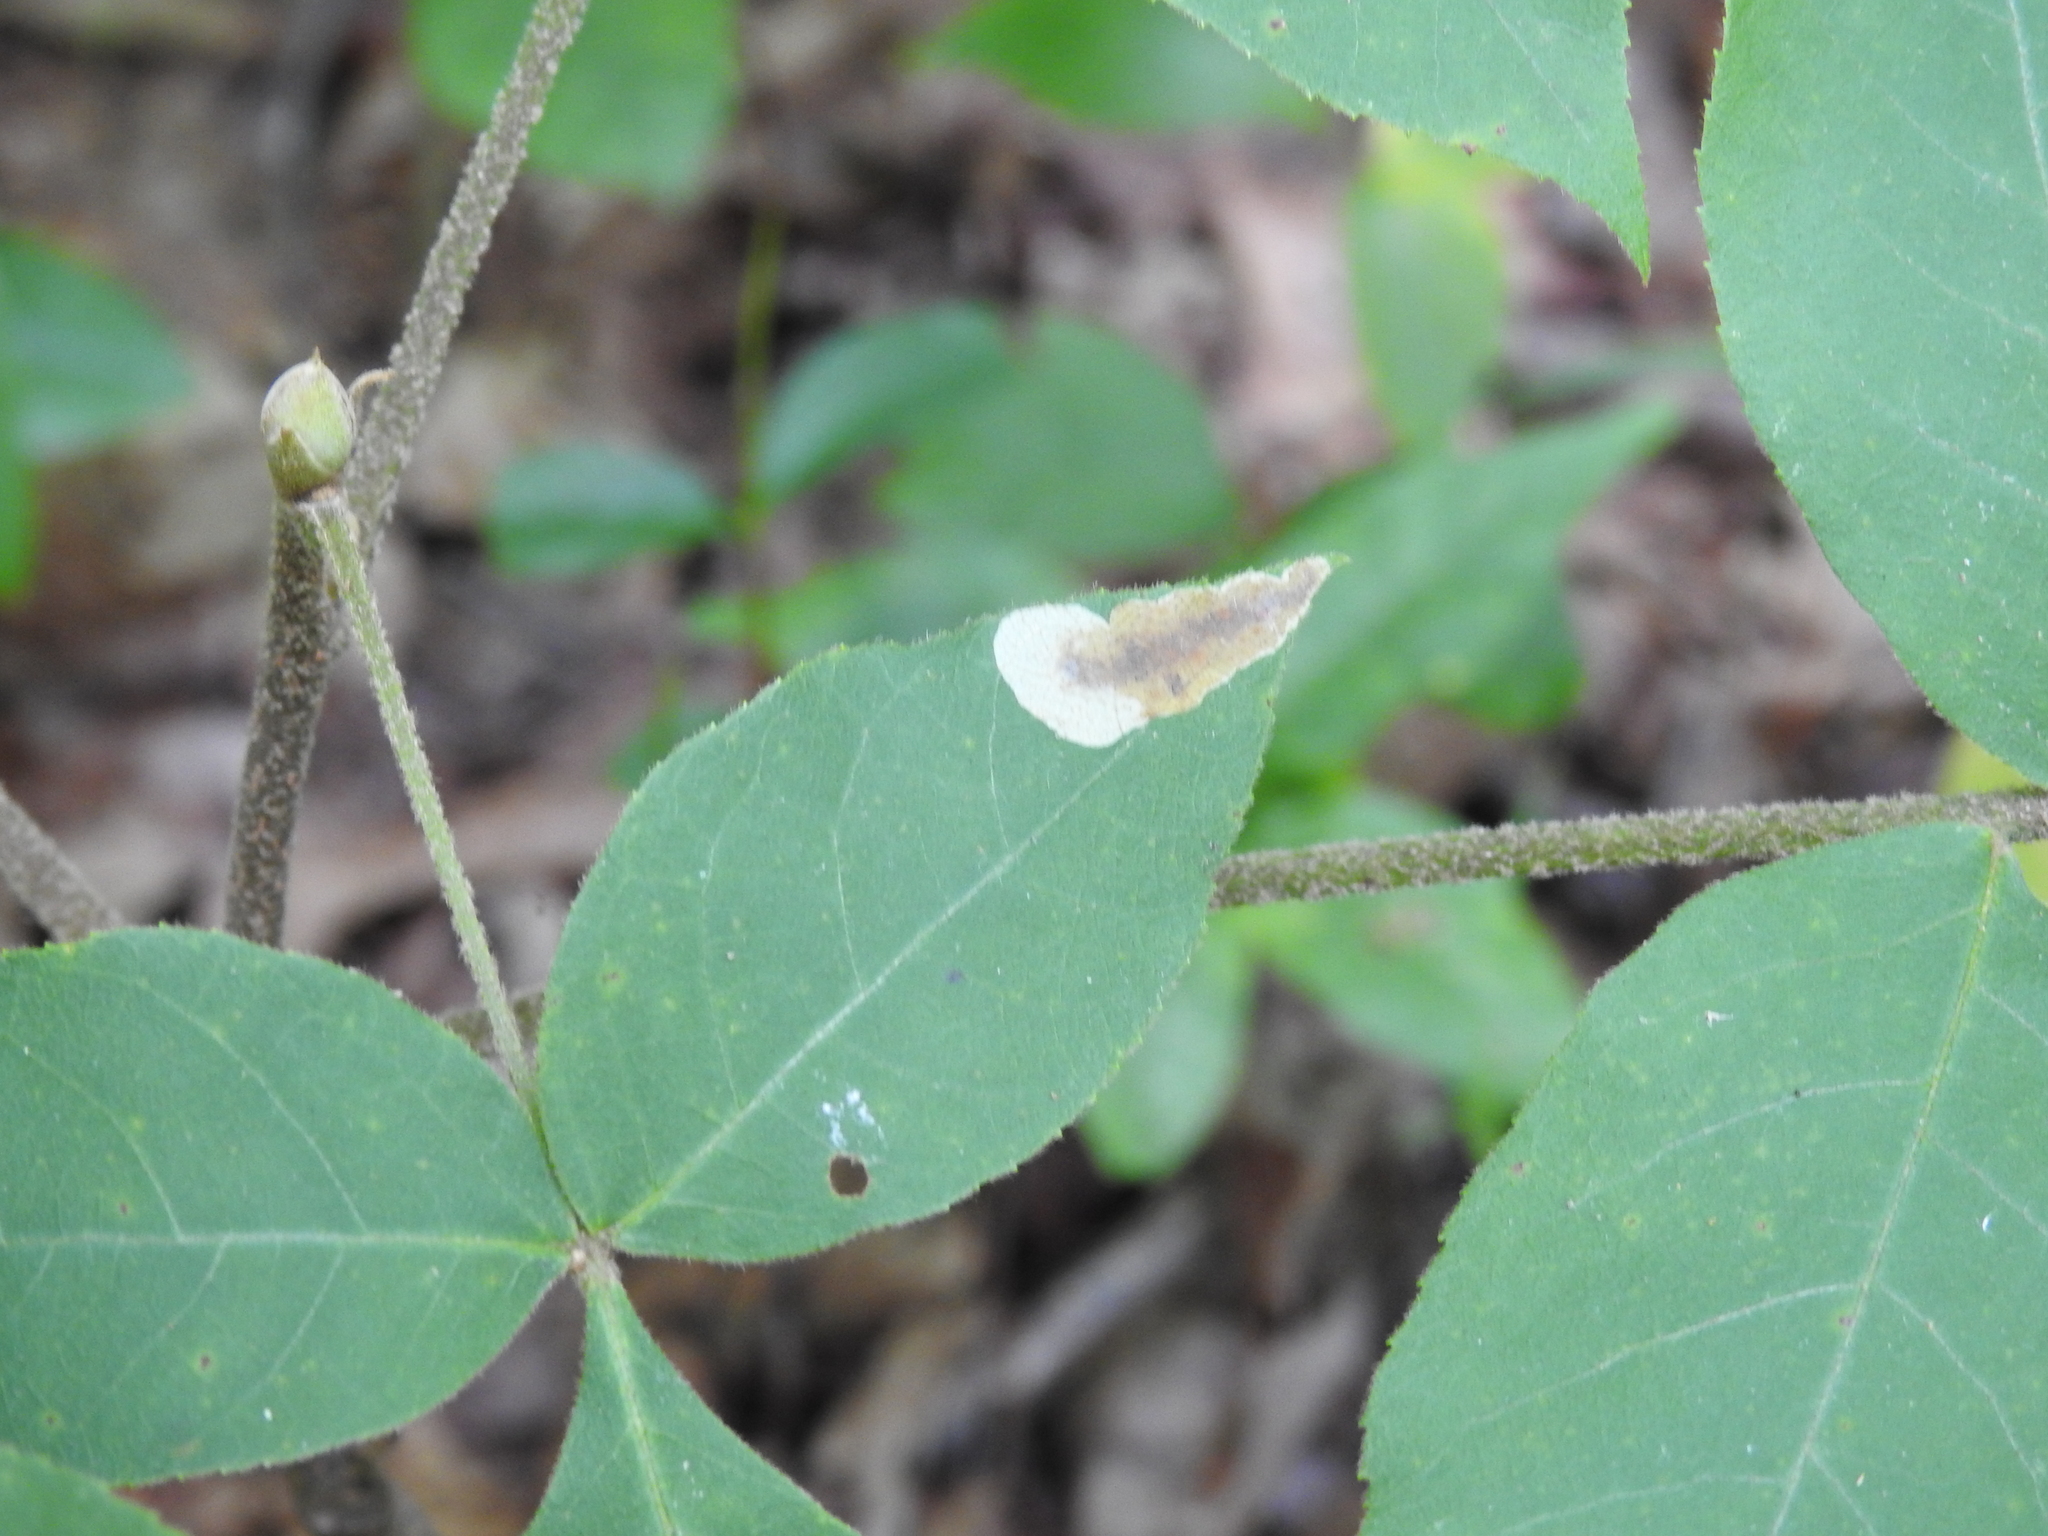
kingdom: Animalia
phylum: Arthropoda
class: Insecta
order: Lepidoptera
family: Gracillariidae
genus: Cameraria
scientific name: Cameraria caryaefoliella
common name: Pecan leafminer moth
